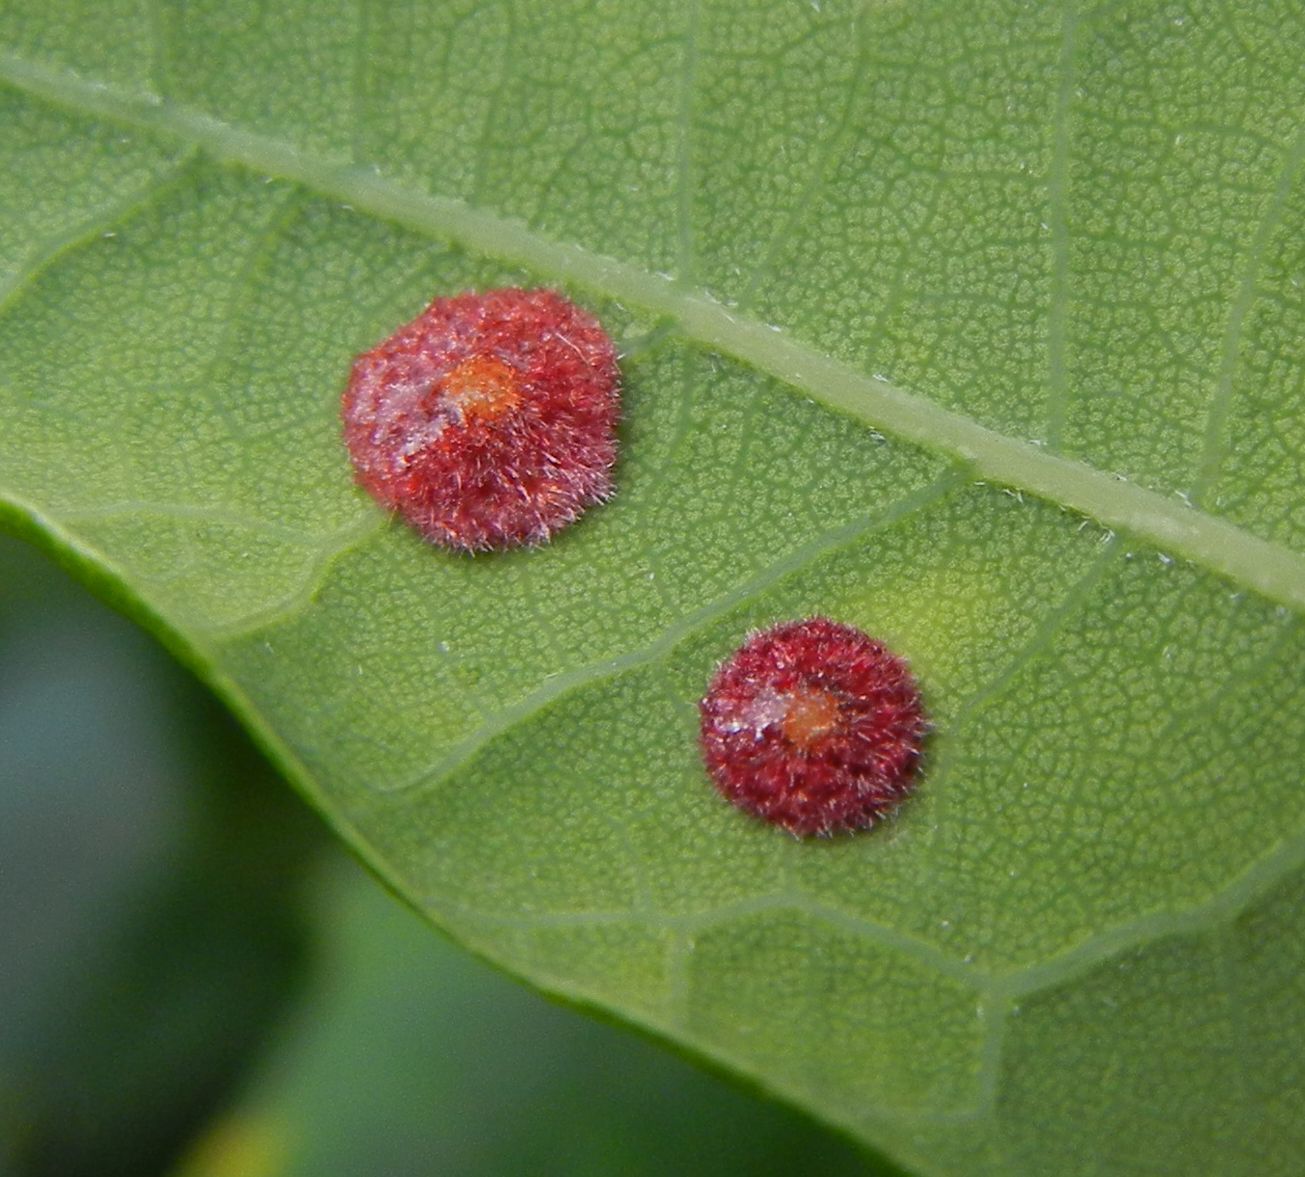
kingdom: Animalia
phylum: Arthropoda
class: Insecta
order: Hymenoptera
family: Cynipidae
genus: Neuroterus
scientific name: Neuroterus quercusbaccarum
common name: Common spangle gall
